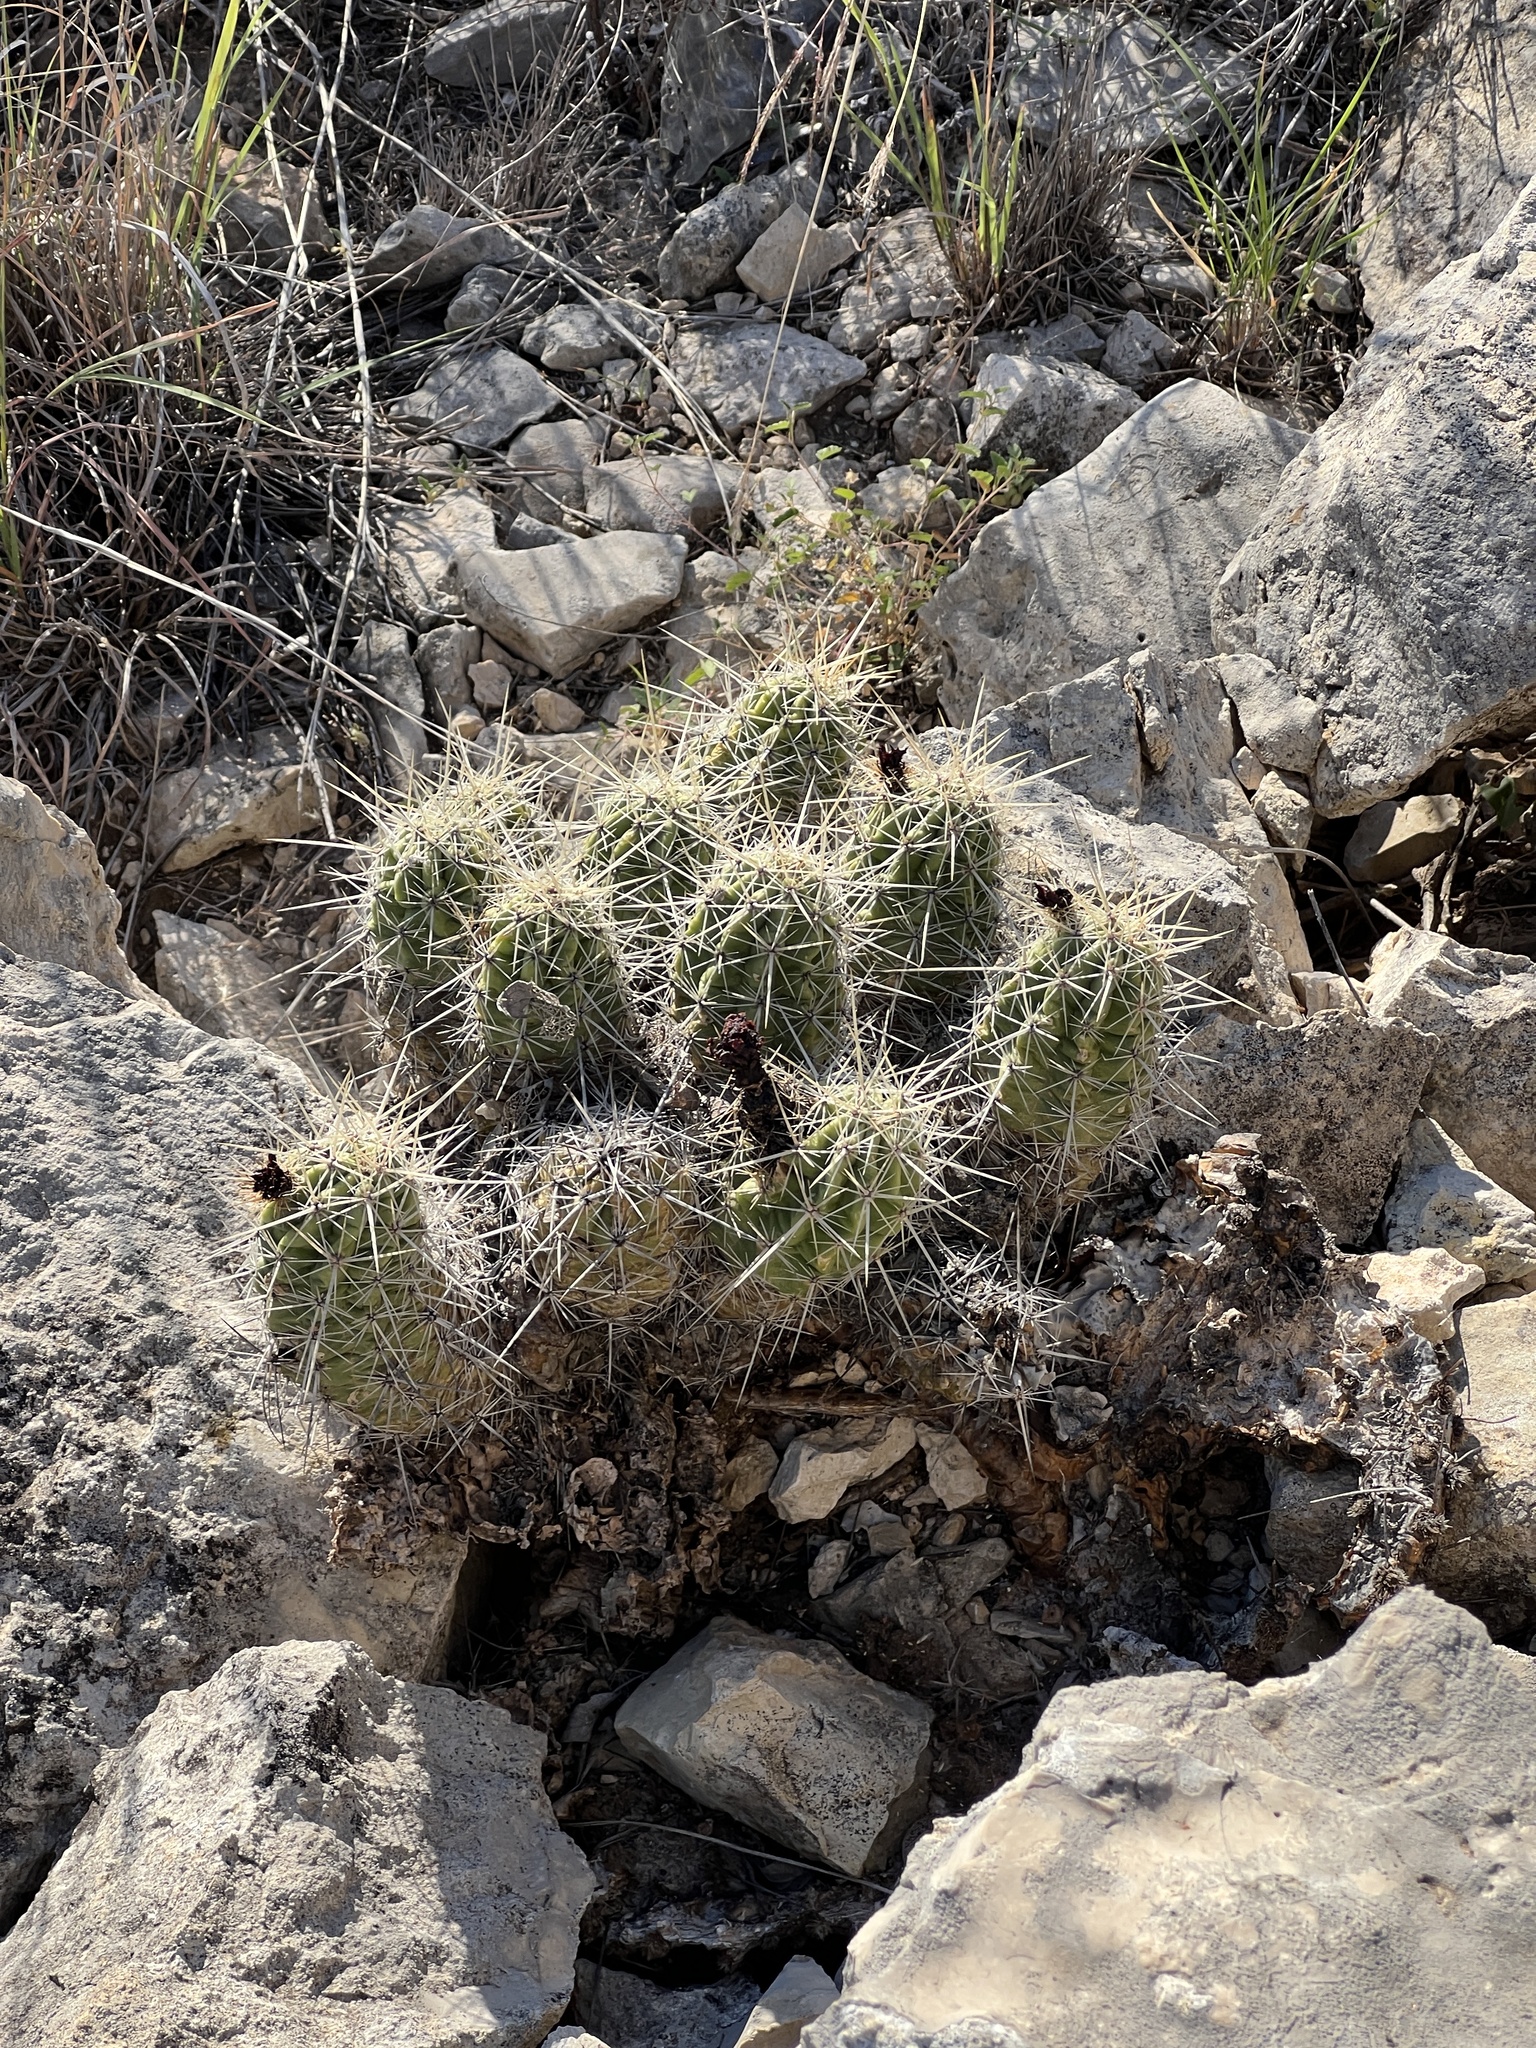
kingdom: Plantae
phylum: Tracheophyta
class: Magnoliopsida
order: Caryophyllales
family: Cactaceae
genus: Echinocereus
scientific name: Echinocereus enneacanthus
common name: Pitaya
